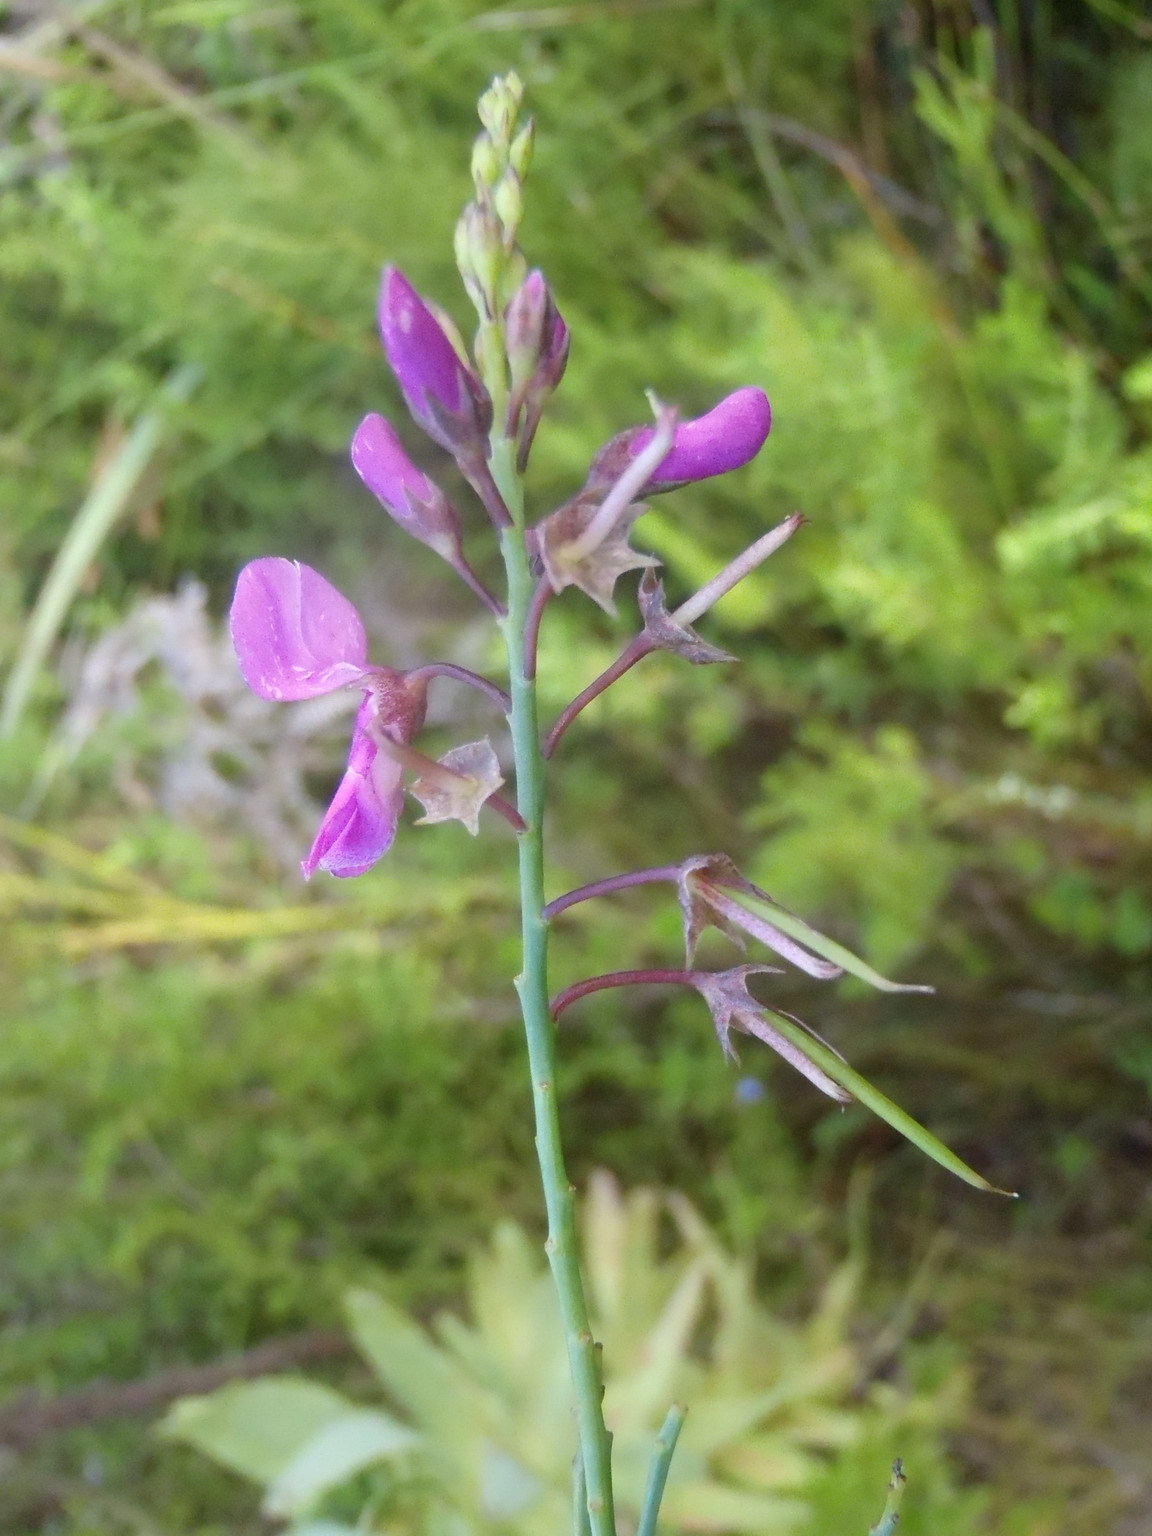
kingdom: Plantae
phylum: Tracheophyta
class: Magnoliopsida
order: Fabales
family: Fabaceae
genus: Indigofera
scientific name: Indigofera filifolia
